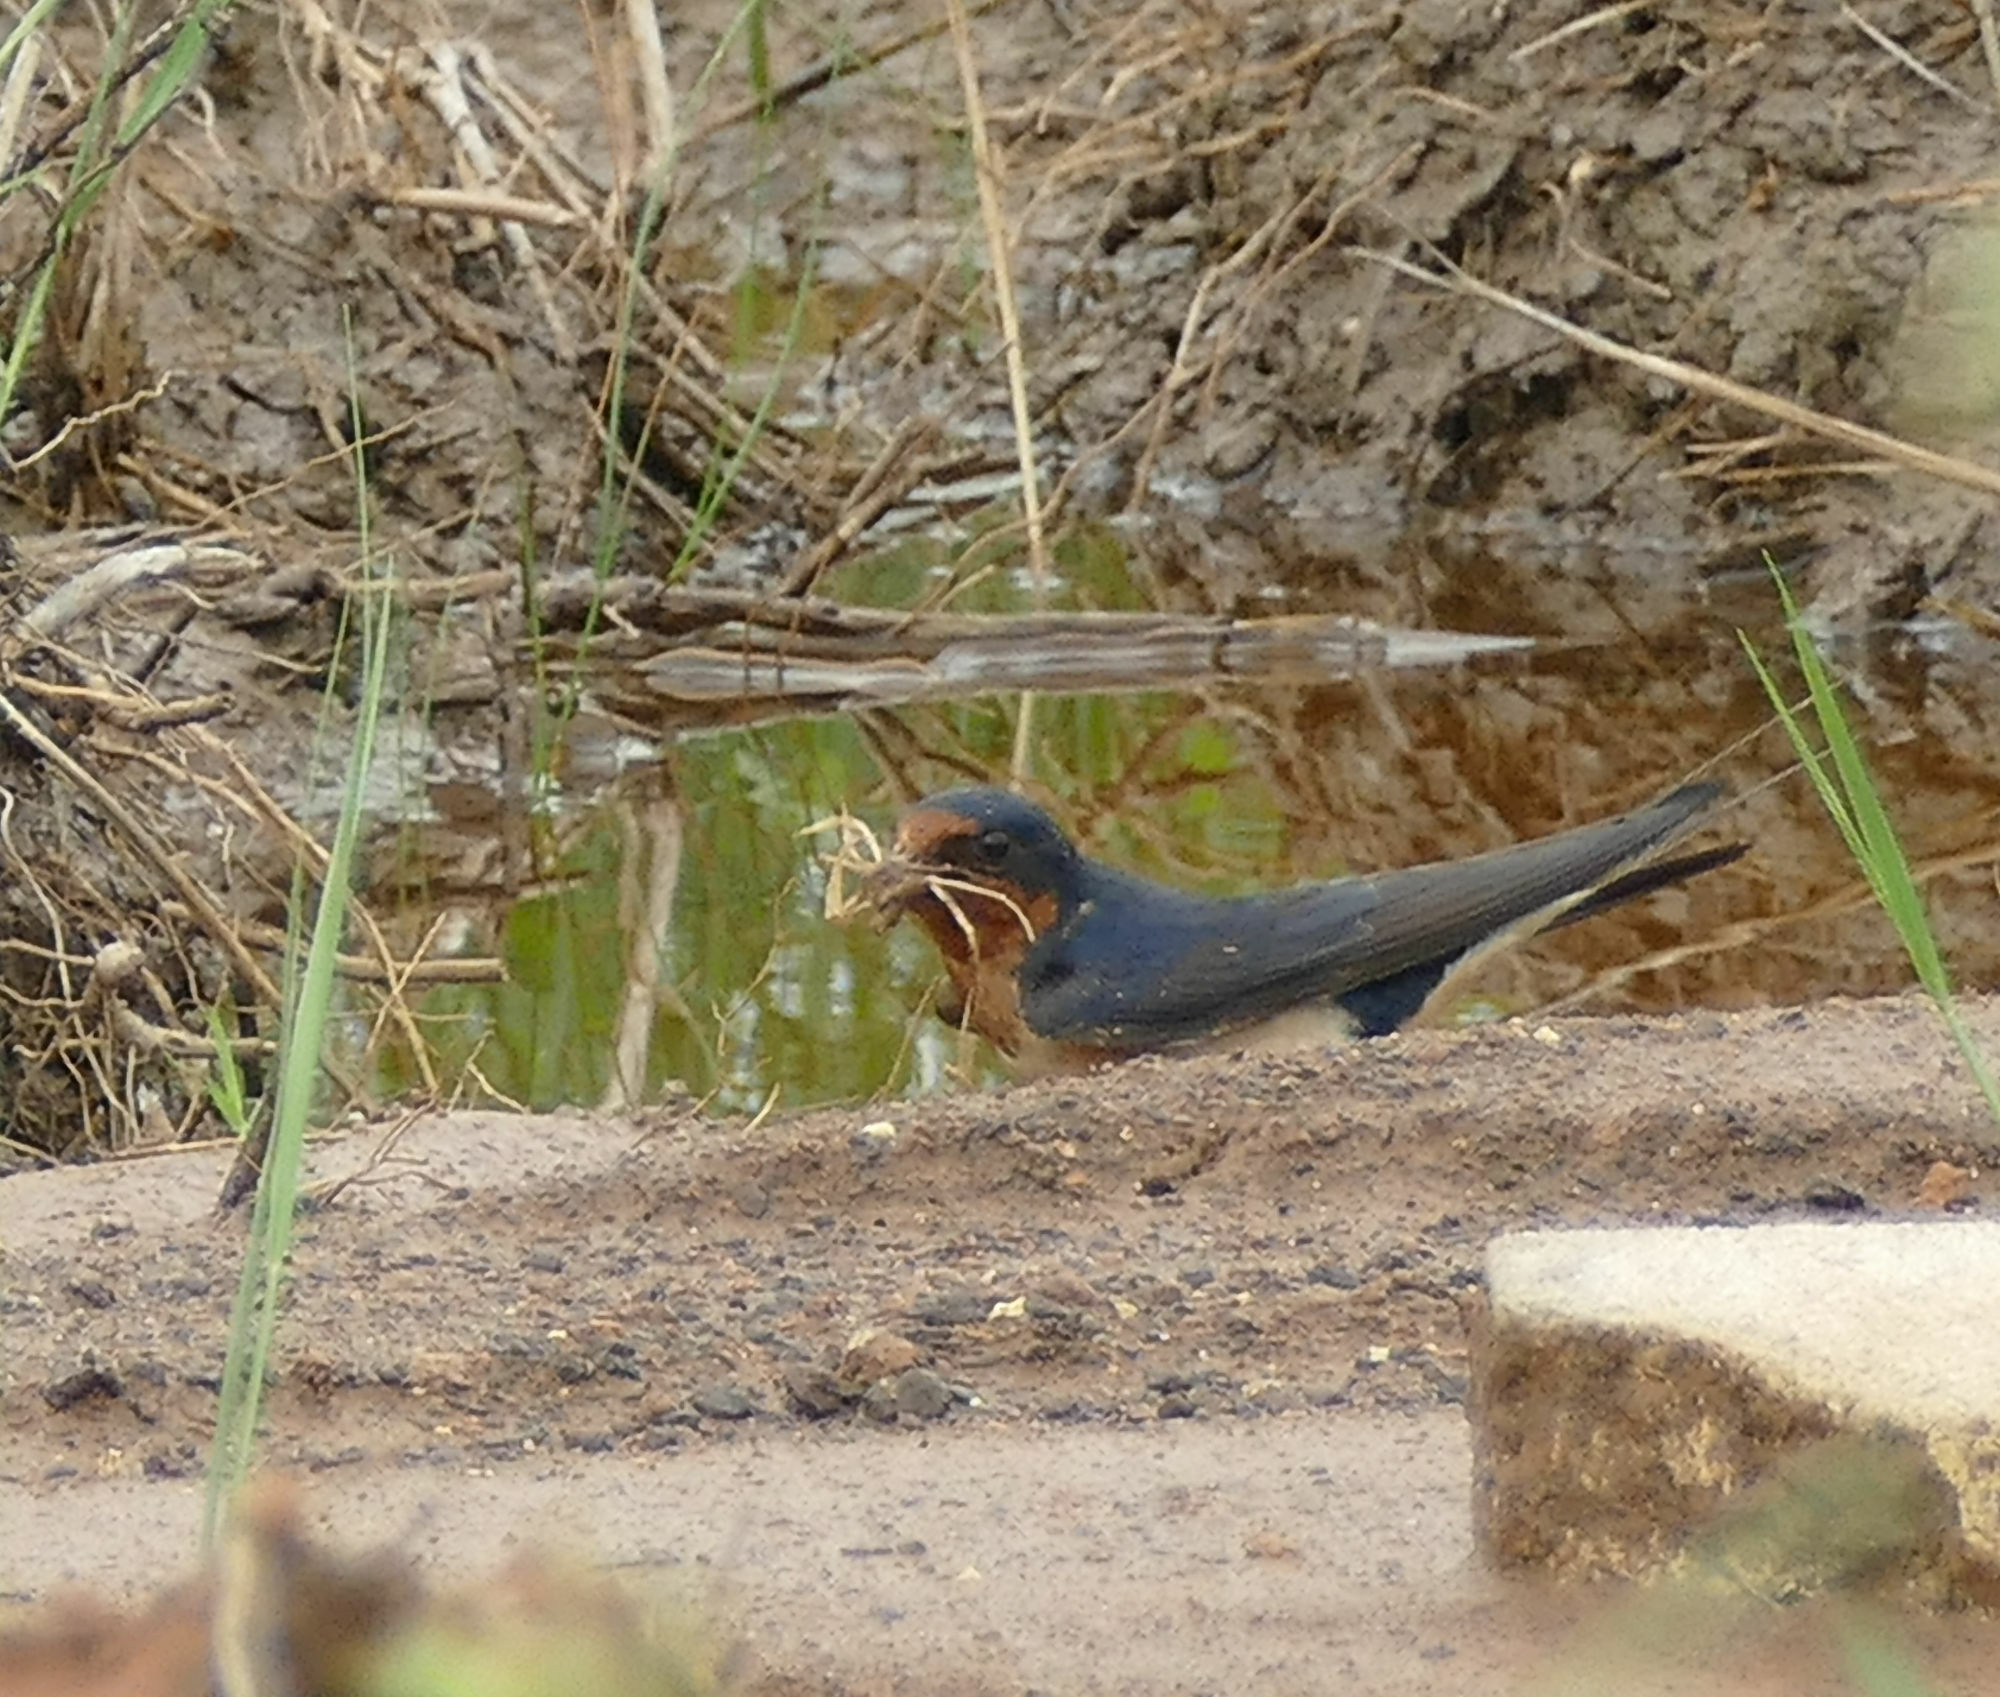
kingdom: Animalia
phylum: Chordata
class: Aves
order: Passeriformes
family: Hirundinidae
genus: Hirundo
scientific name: Hirundo rustica
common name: Barn swallow
